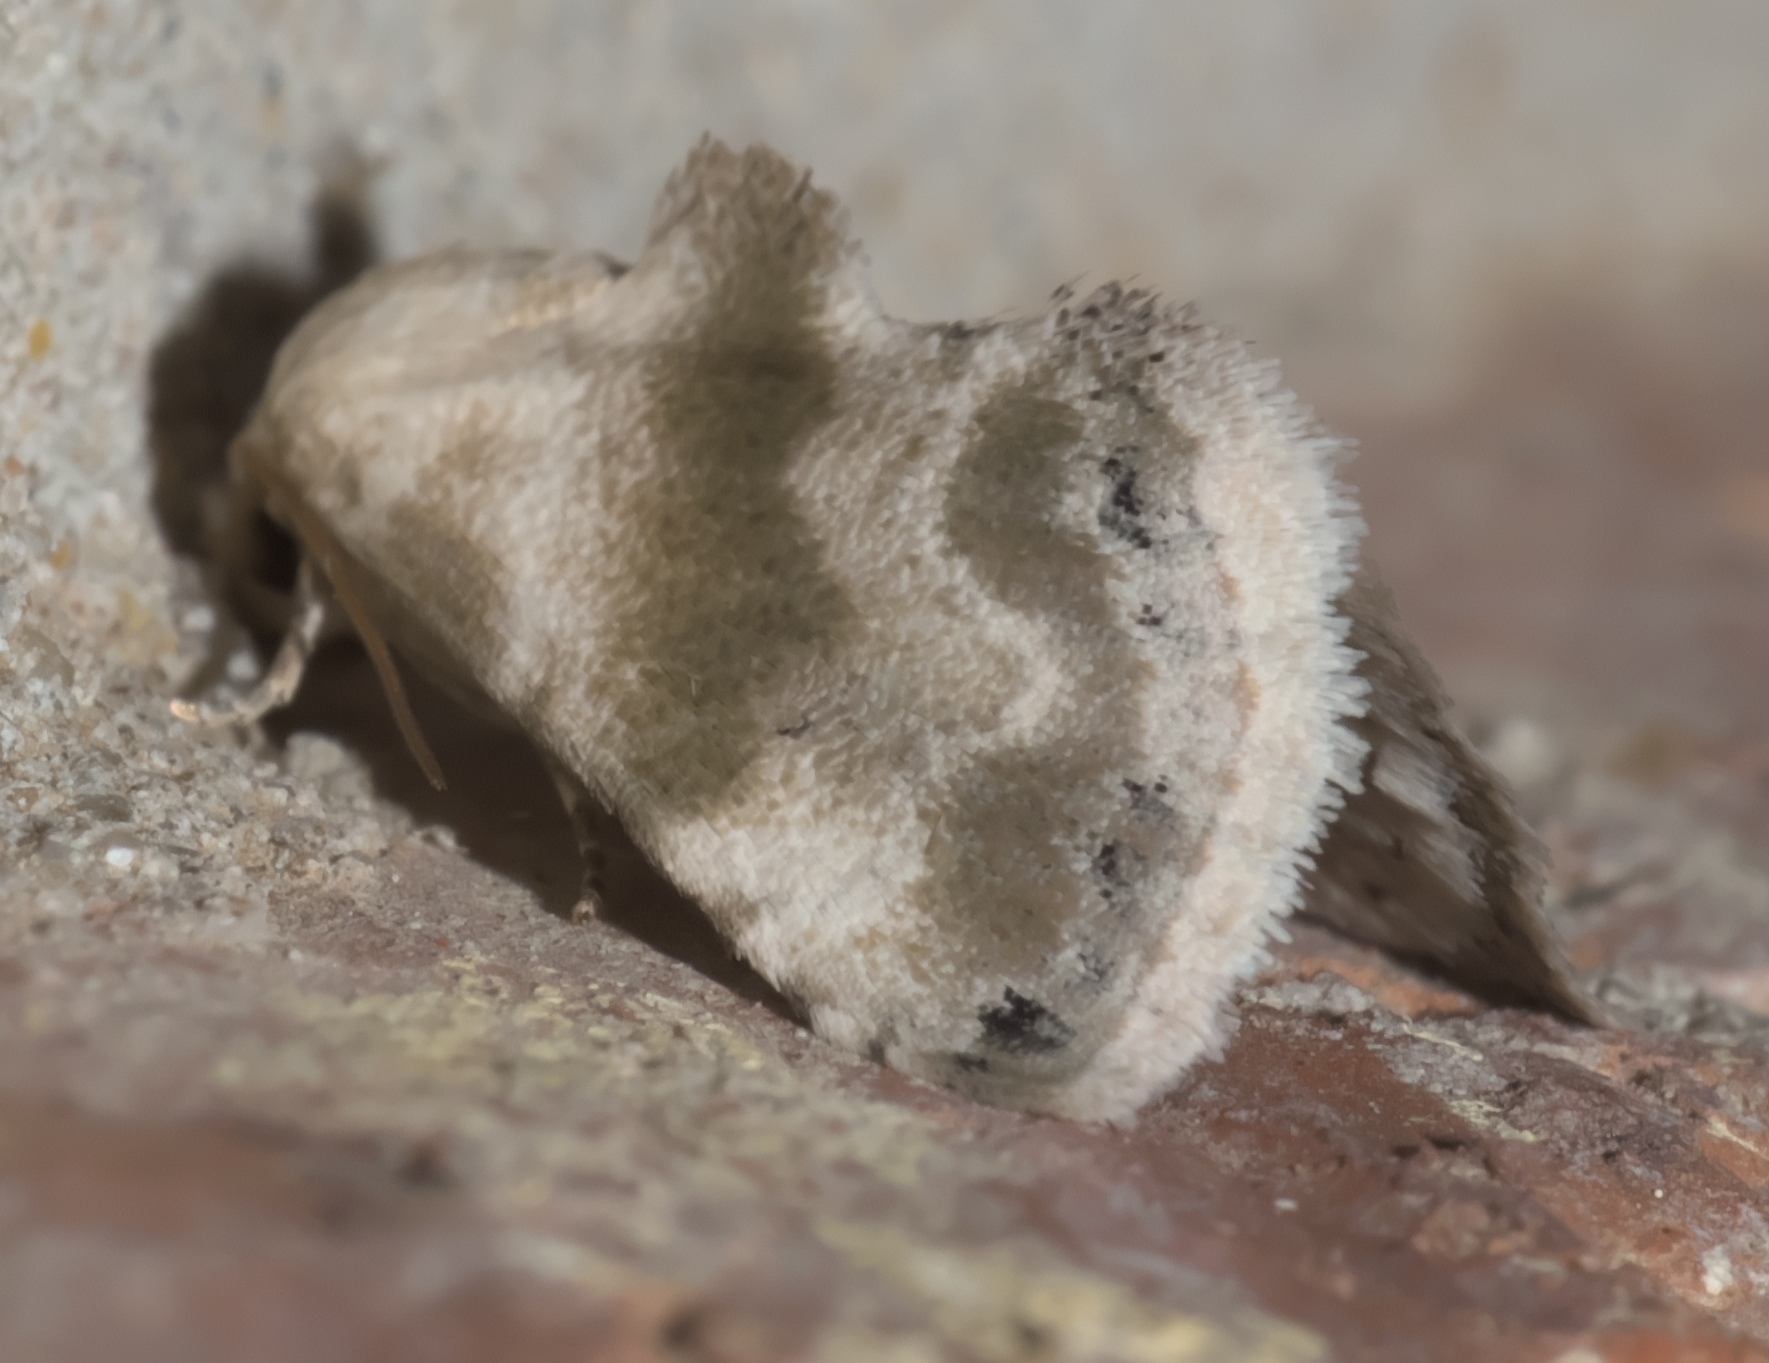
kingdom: Animalia
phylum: Arthropoda
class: Insecta
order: Lepidoptera
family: Noctuidae
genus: Eublemma
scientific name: Eublemma minima
